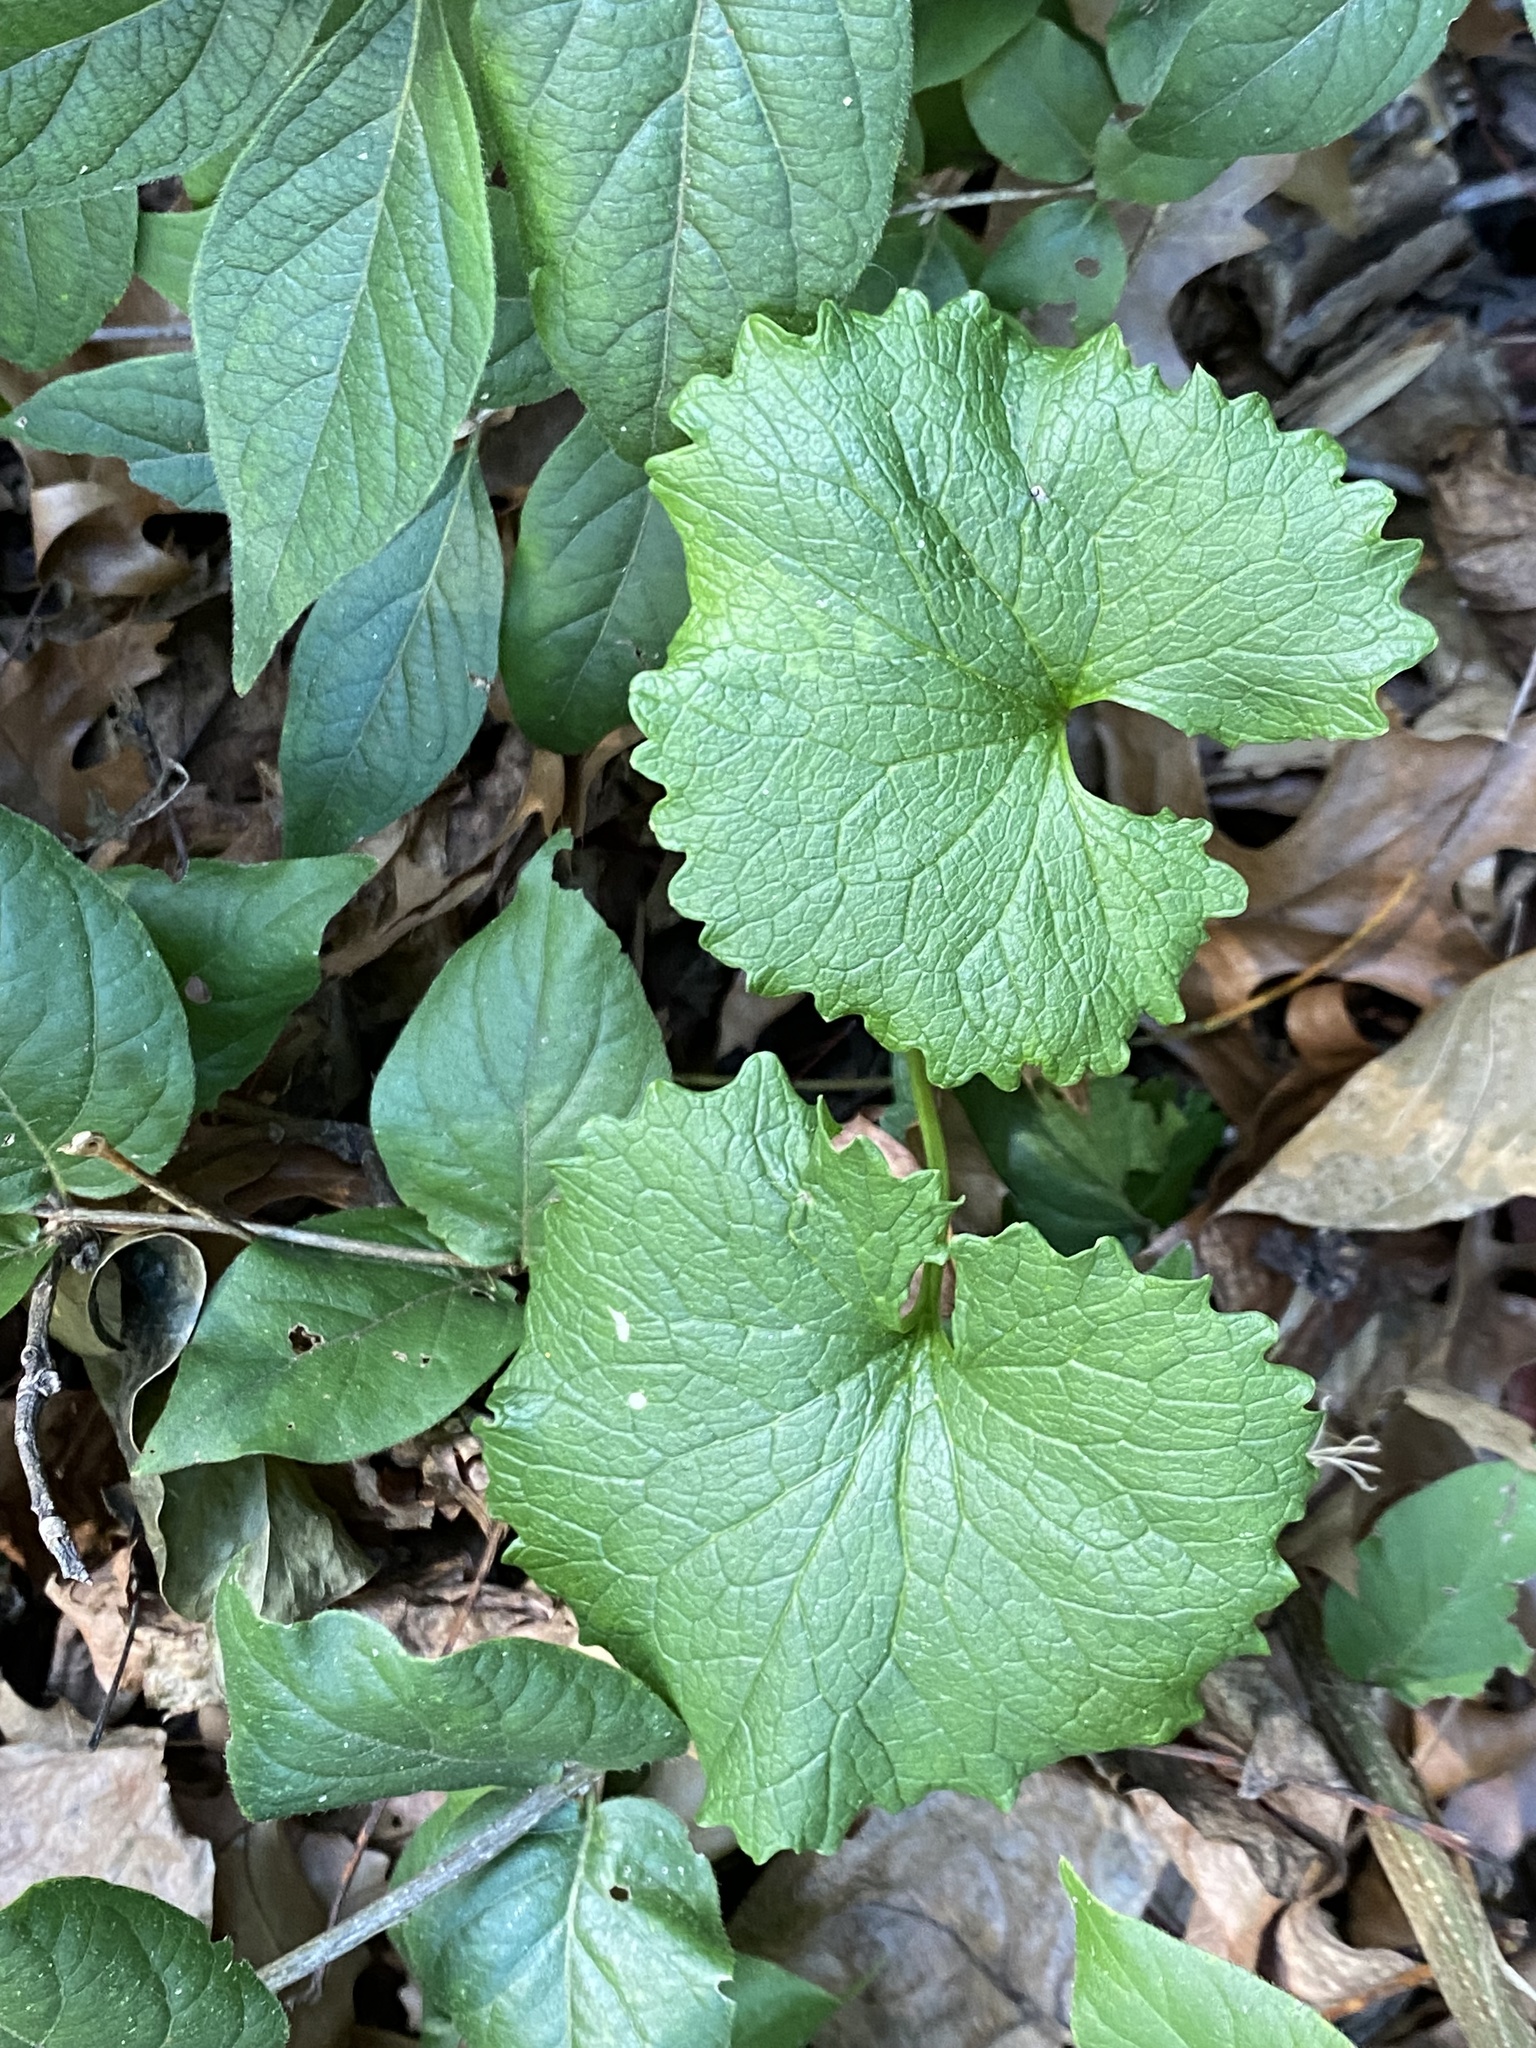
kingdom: Plantae
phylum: Tracheophyta
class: Magnoliopsida
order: Brassicales
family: Brassicaceae
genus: Alliaria
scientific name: Alliaria petiolata
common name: Garlic mustard
